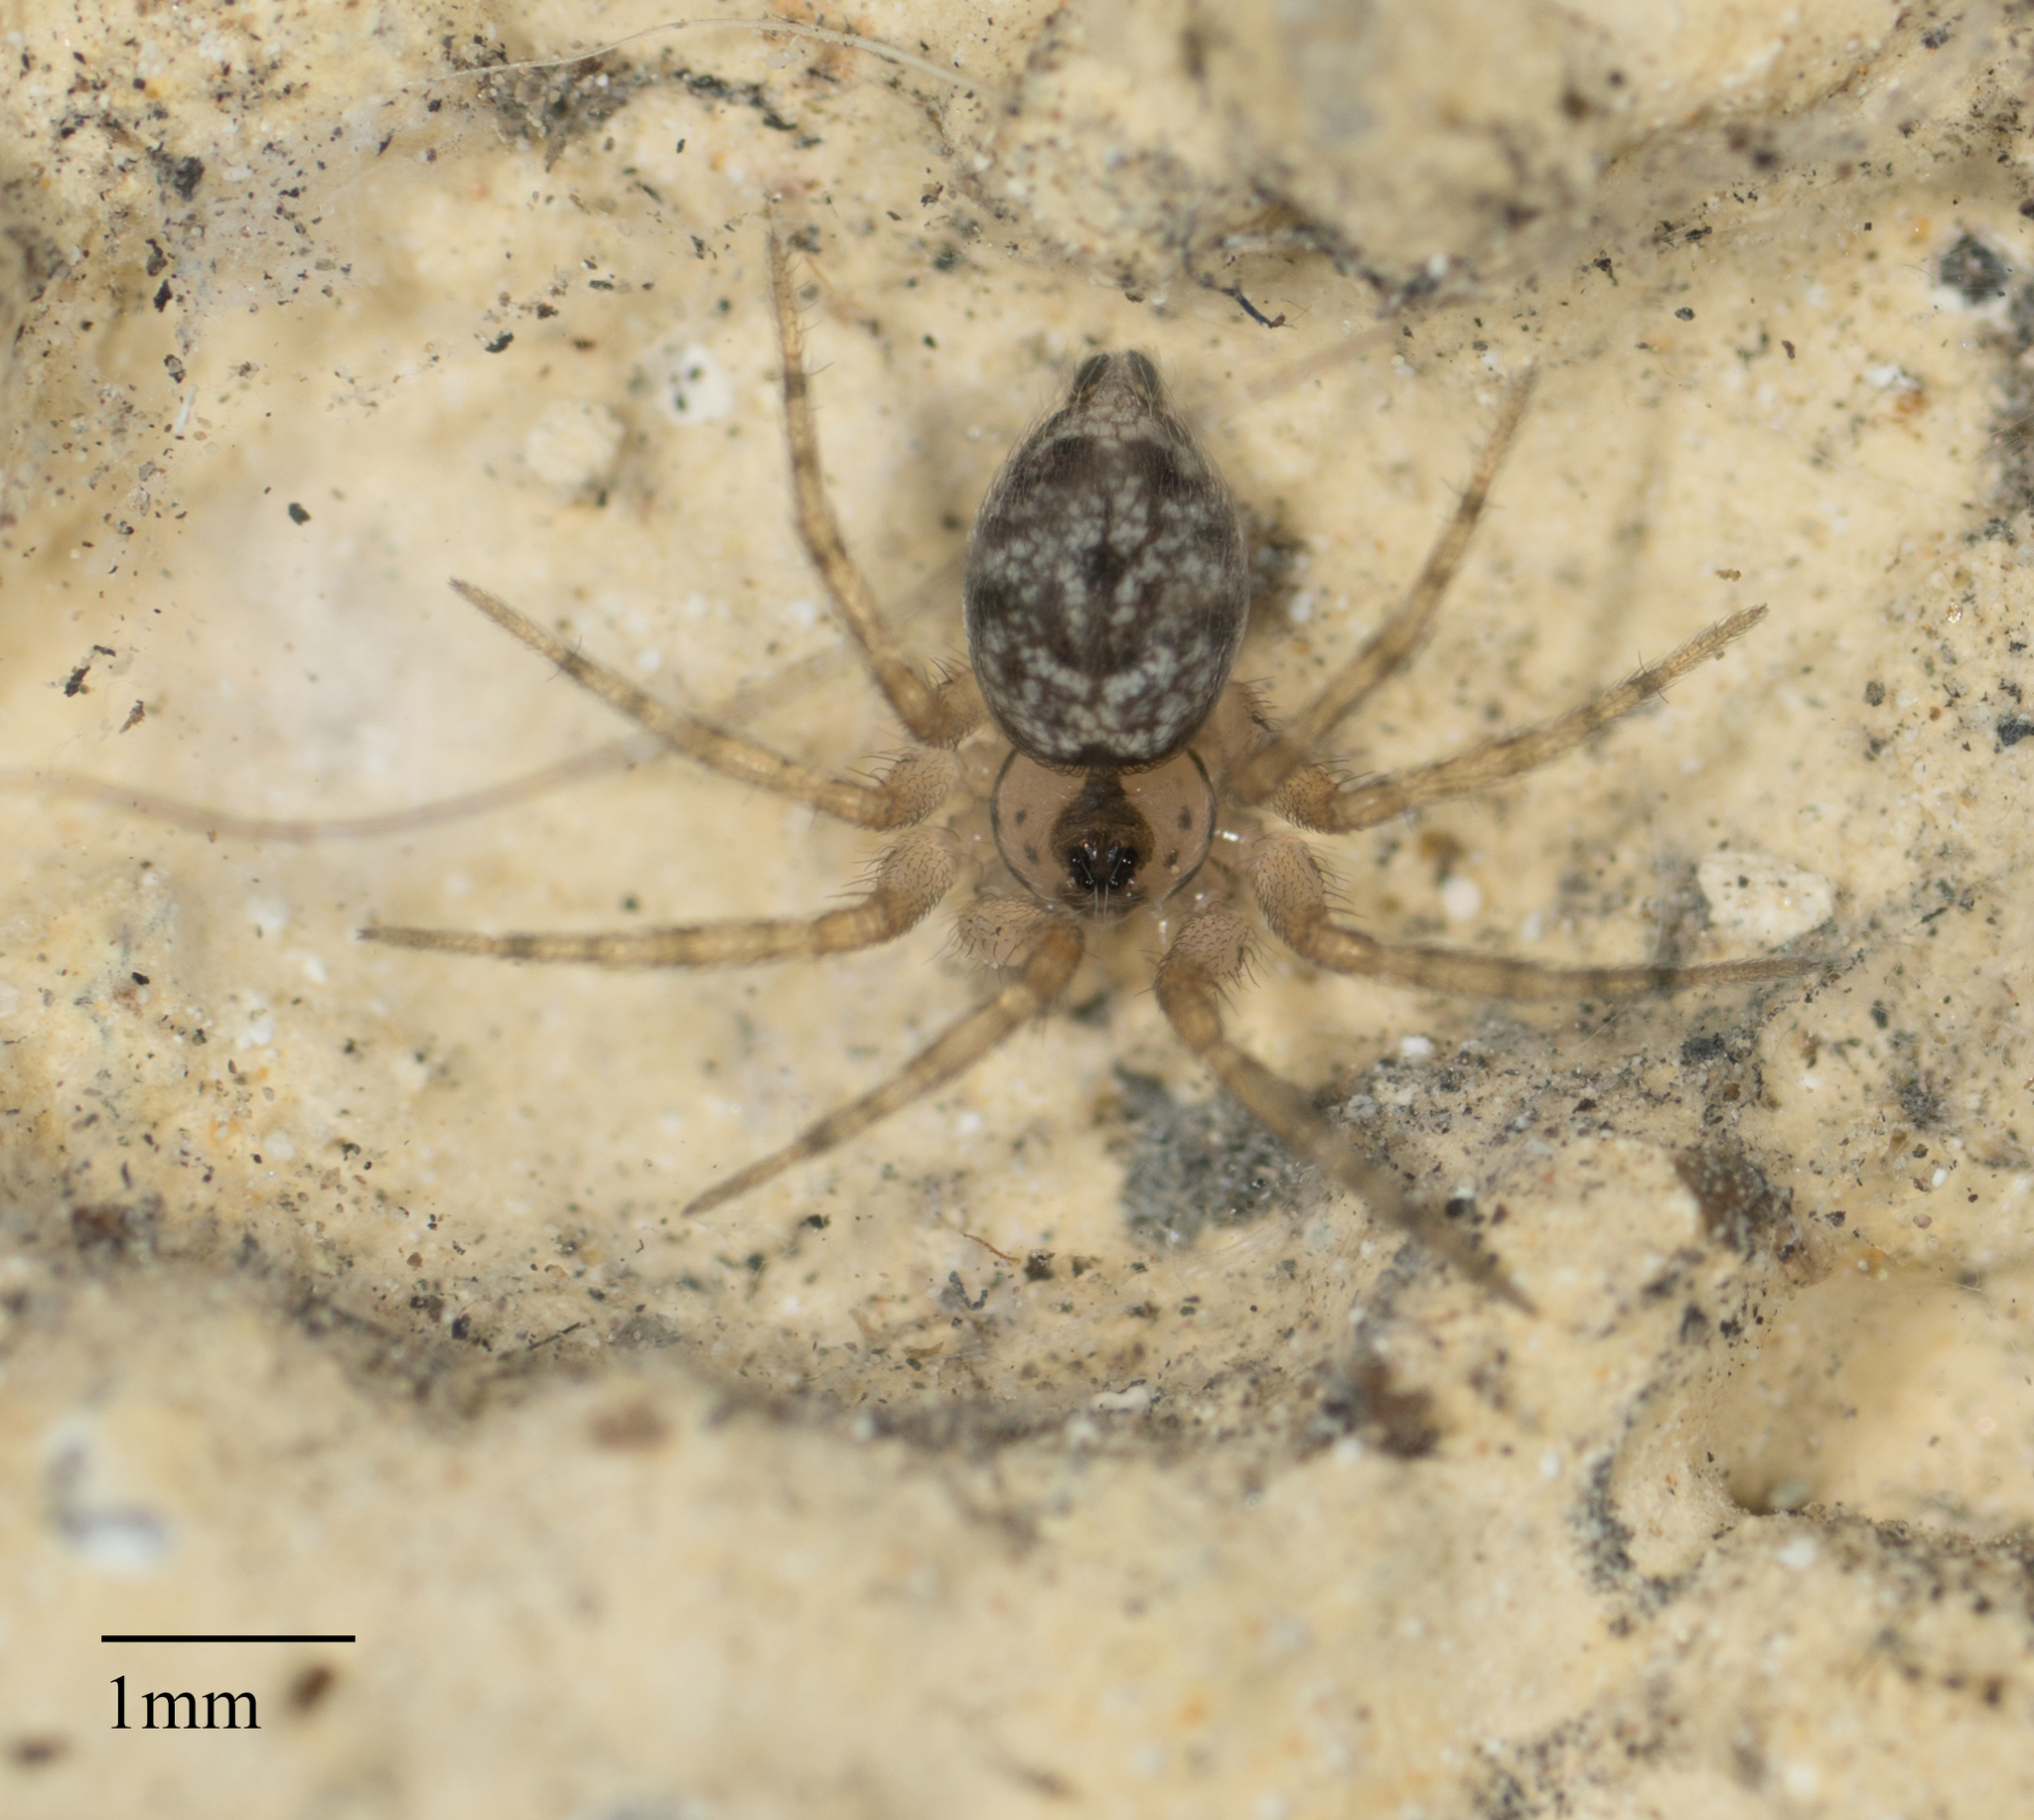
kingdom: Animalia
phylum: Arthropoda
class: Arachnida
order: Araneae
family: Oecobiidae
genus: Oecobius
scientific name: Oecobius navus
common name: Flatmesh weaver
